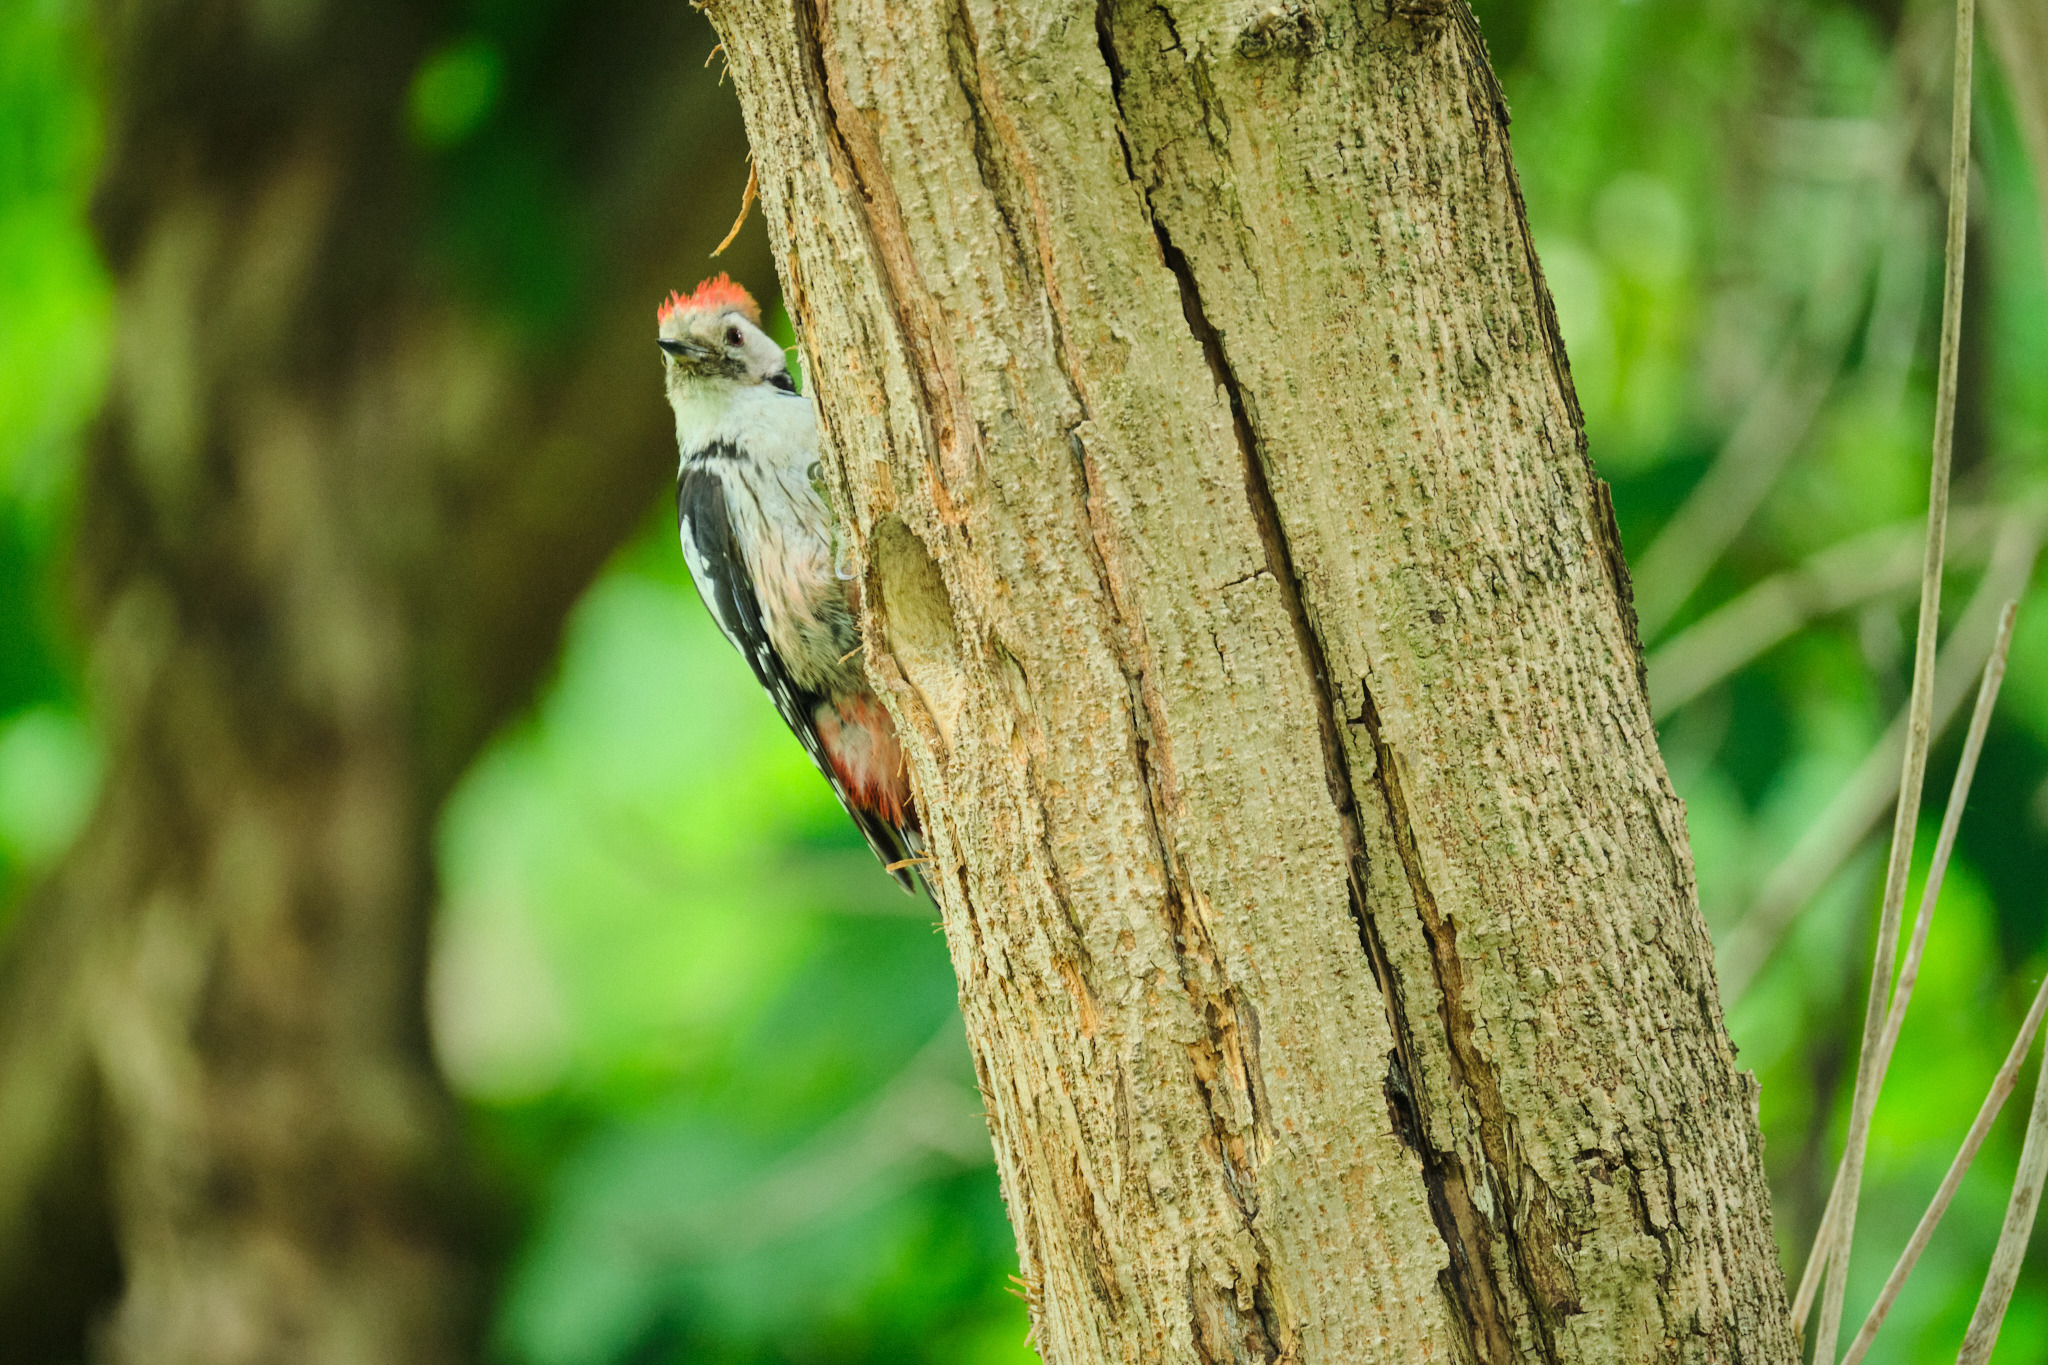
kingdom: Animalia
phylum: Chordata
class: Aves
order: Piciformes
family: Picidae
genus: Dendrocoptes
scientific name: Dendrocoptes medius
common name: Middle spotted woodpecker
